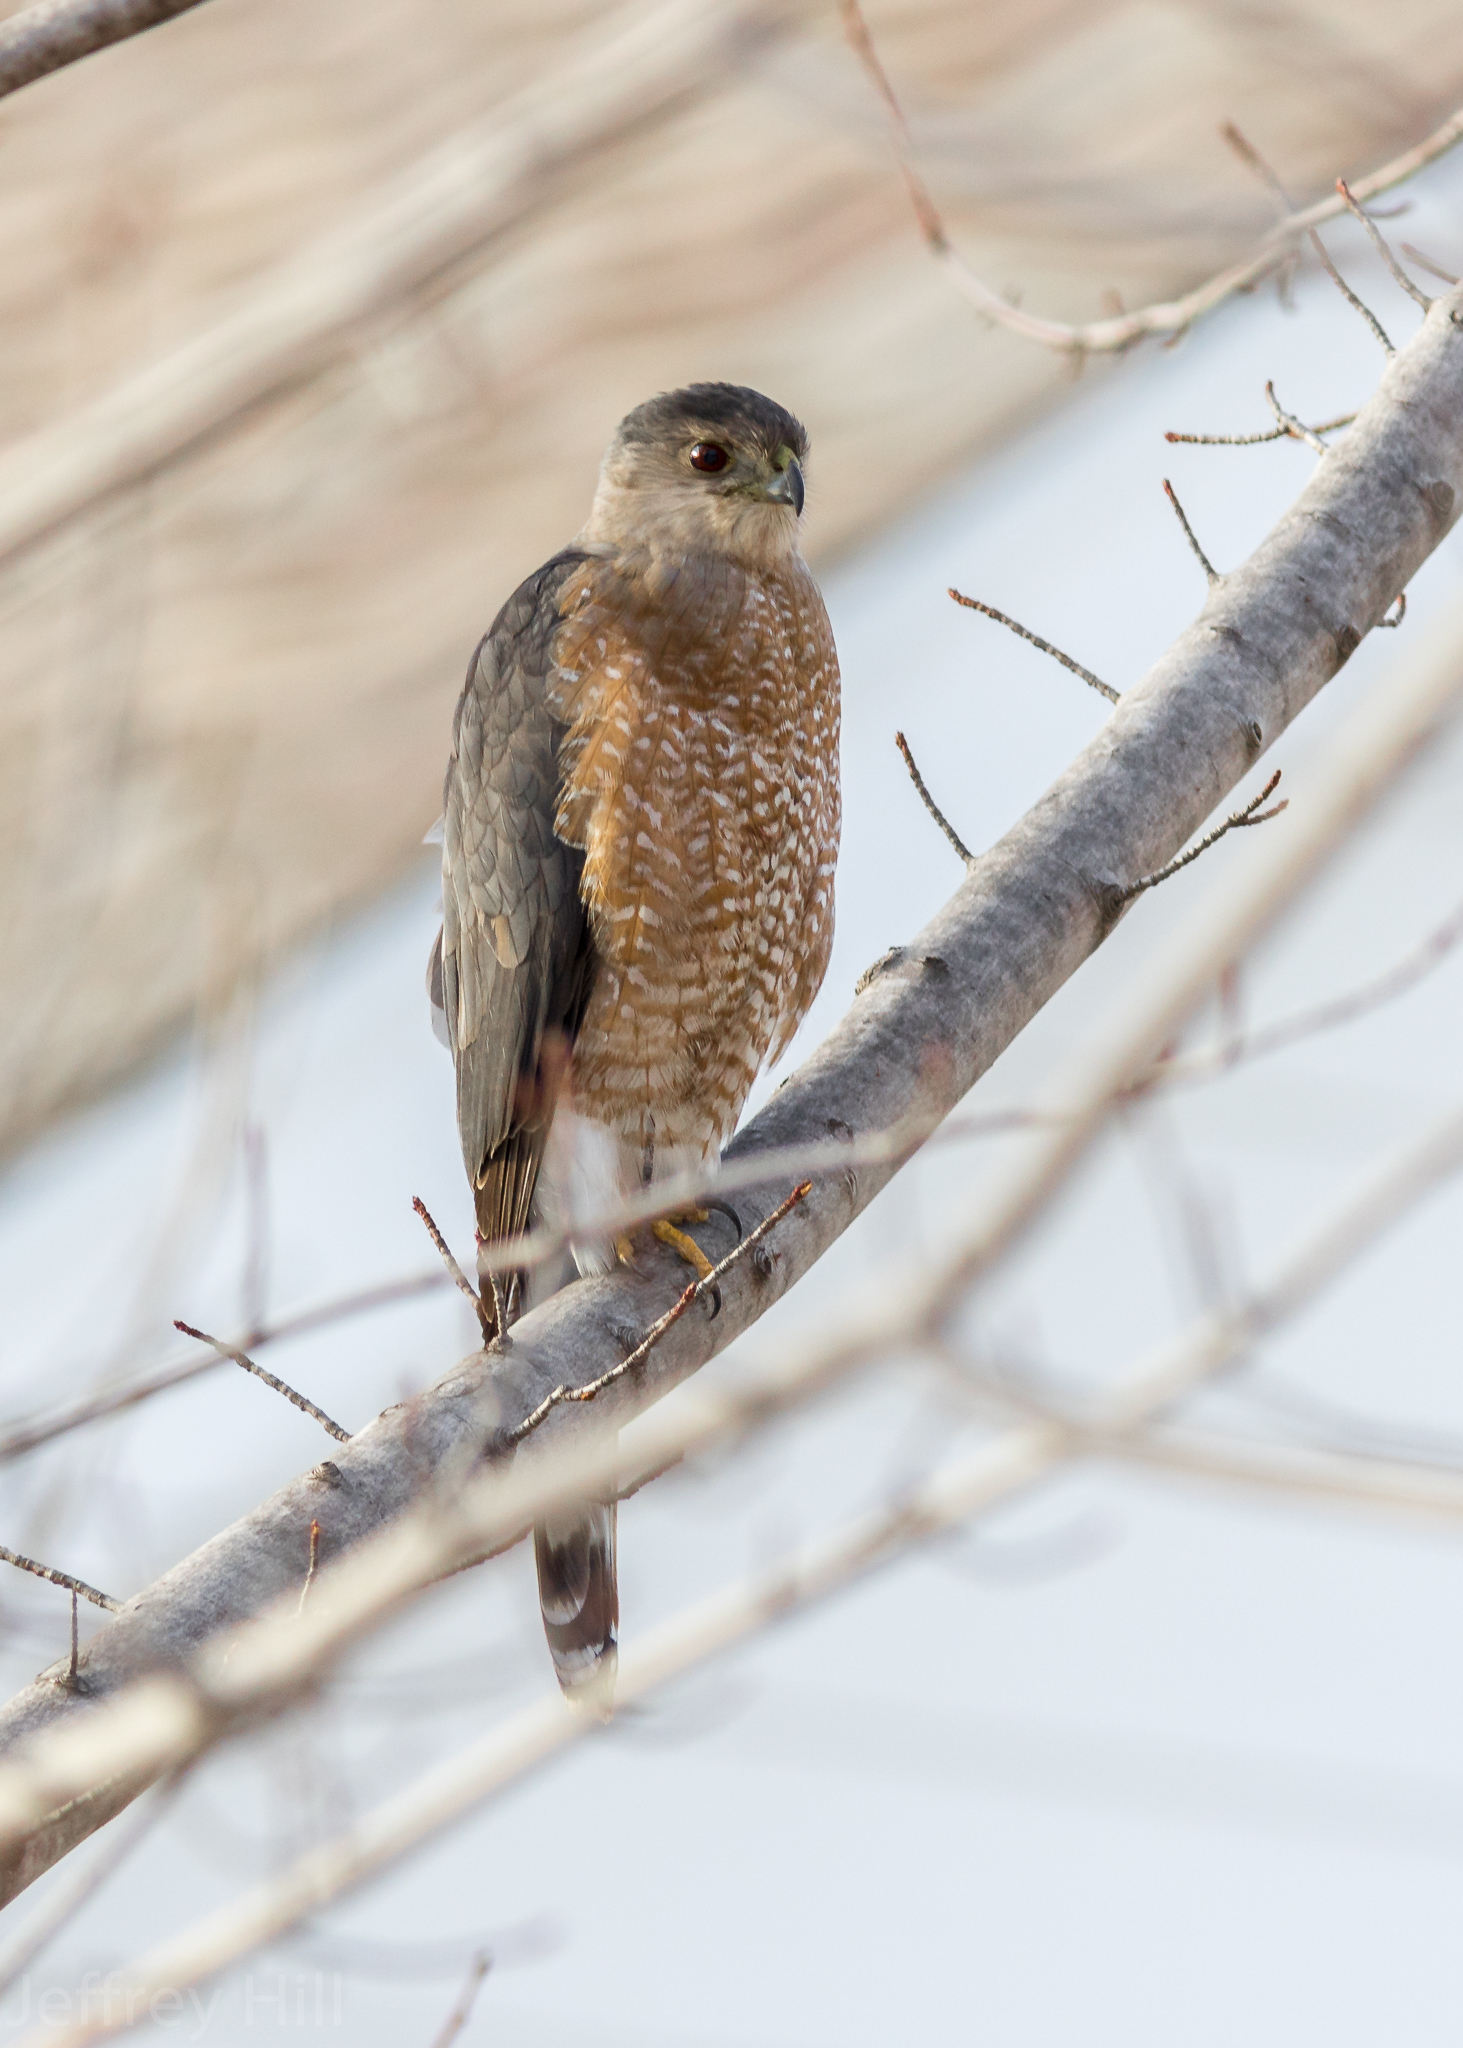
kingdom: Animalia
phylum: Chordata
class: Aves
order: Accipitriformes
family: Accipitridae
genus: Accipiter
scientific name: Accipiter cooperii
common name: Cooper's hawk
